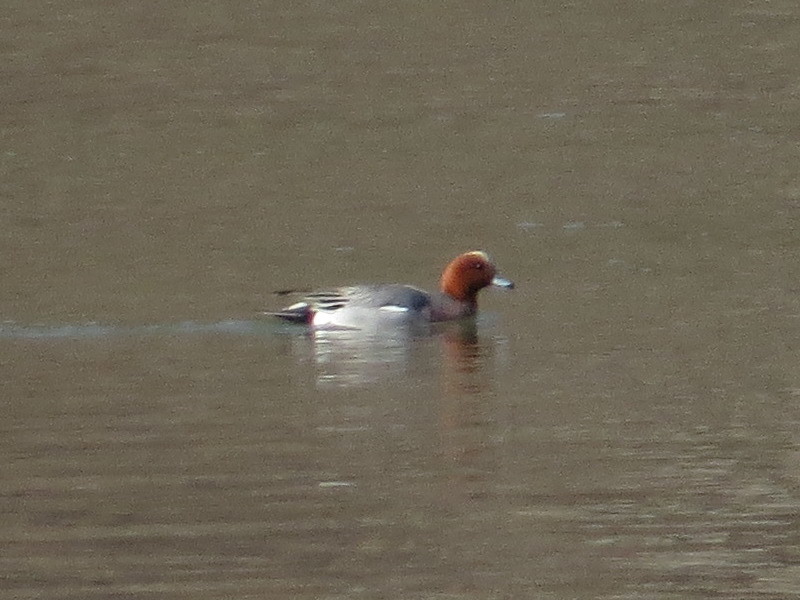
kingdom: Animalia
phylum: Chordata
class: Aves
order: Anseriformes
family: Anatidae
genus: Mareca
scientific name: Mareca penelope
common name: Eurasian wigeon
